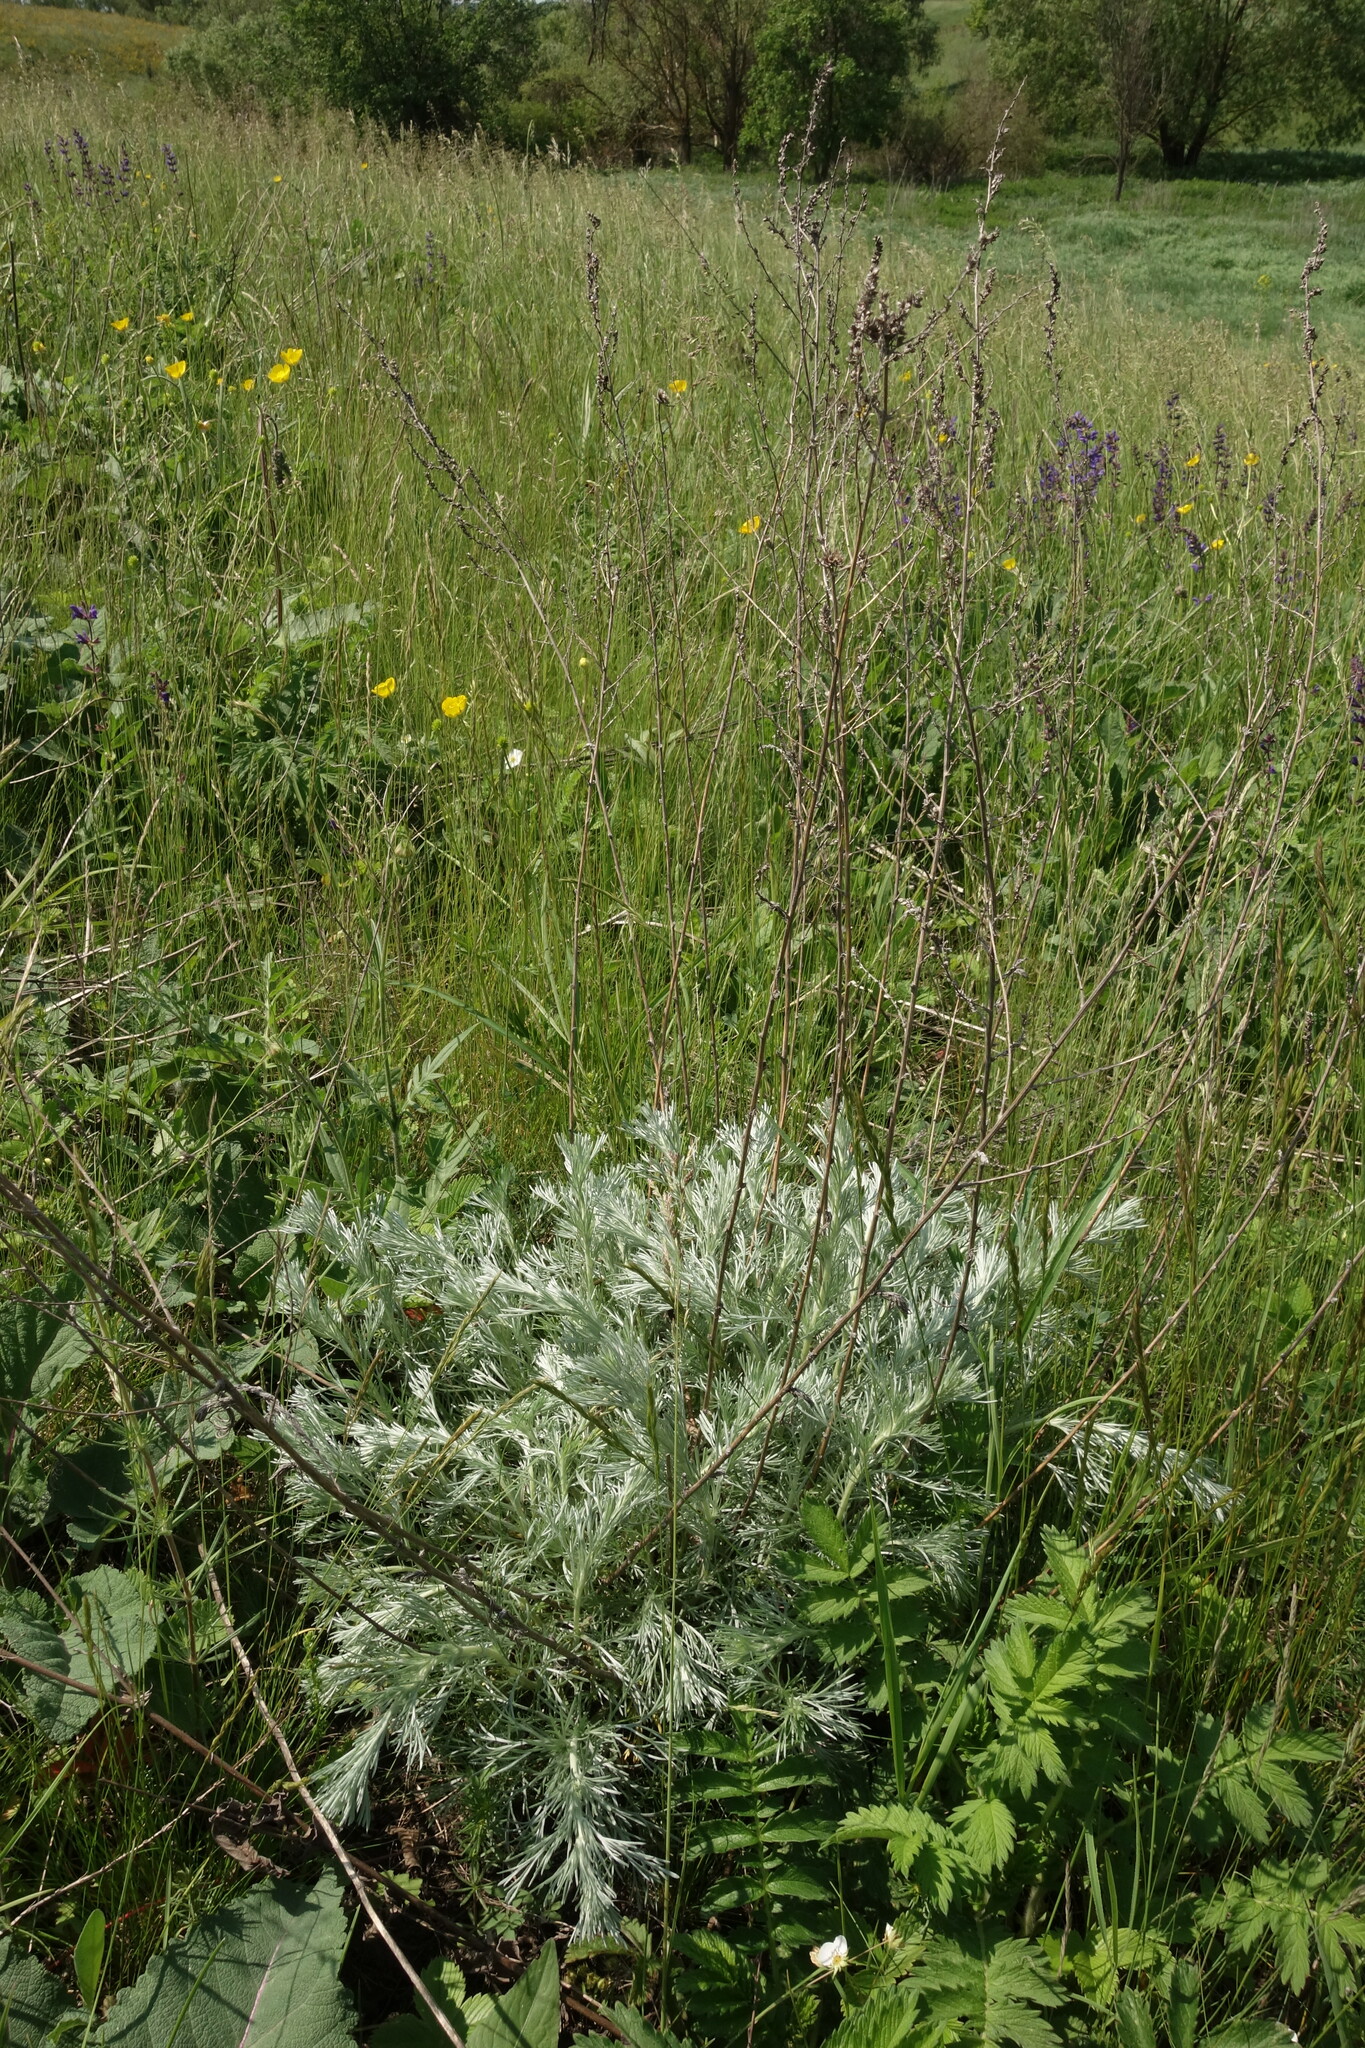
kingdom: Plantae
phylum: Tracheophyta
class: Magnoliopsida
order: Asterales
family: Asteraceae
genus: Artemisia
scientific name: Artemisia campestris
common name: Field wormwood
